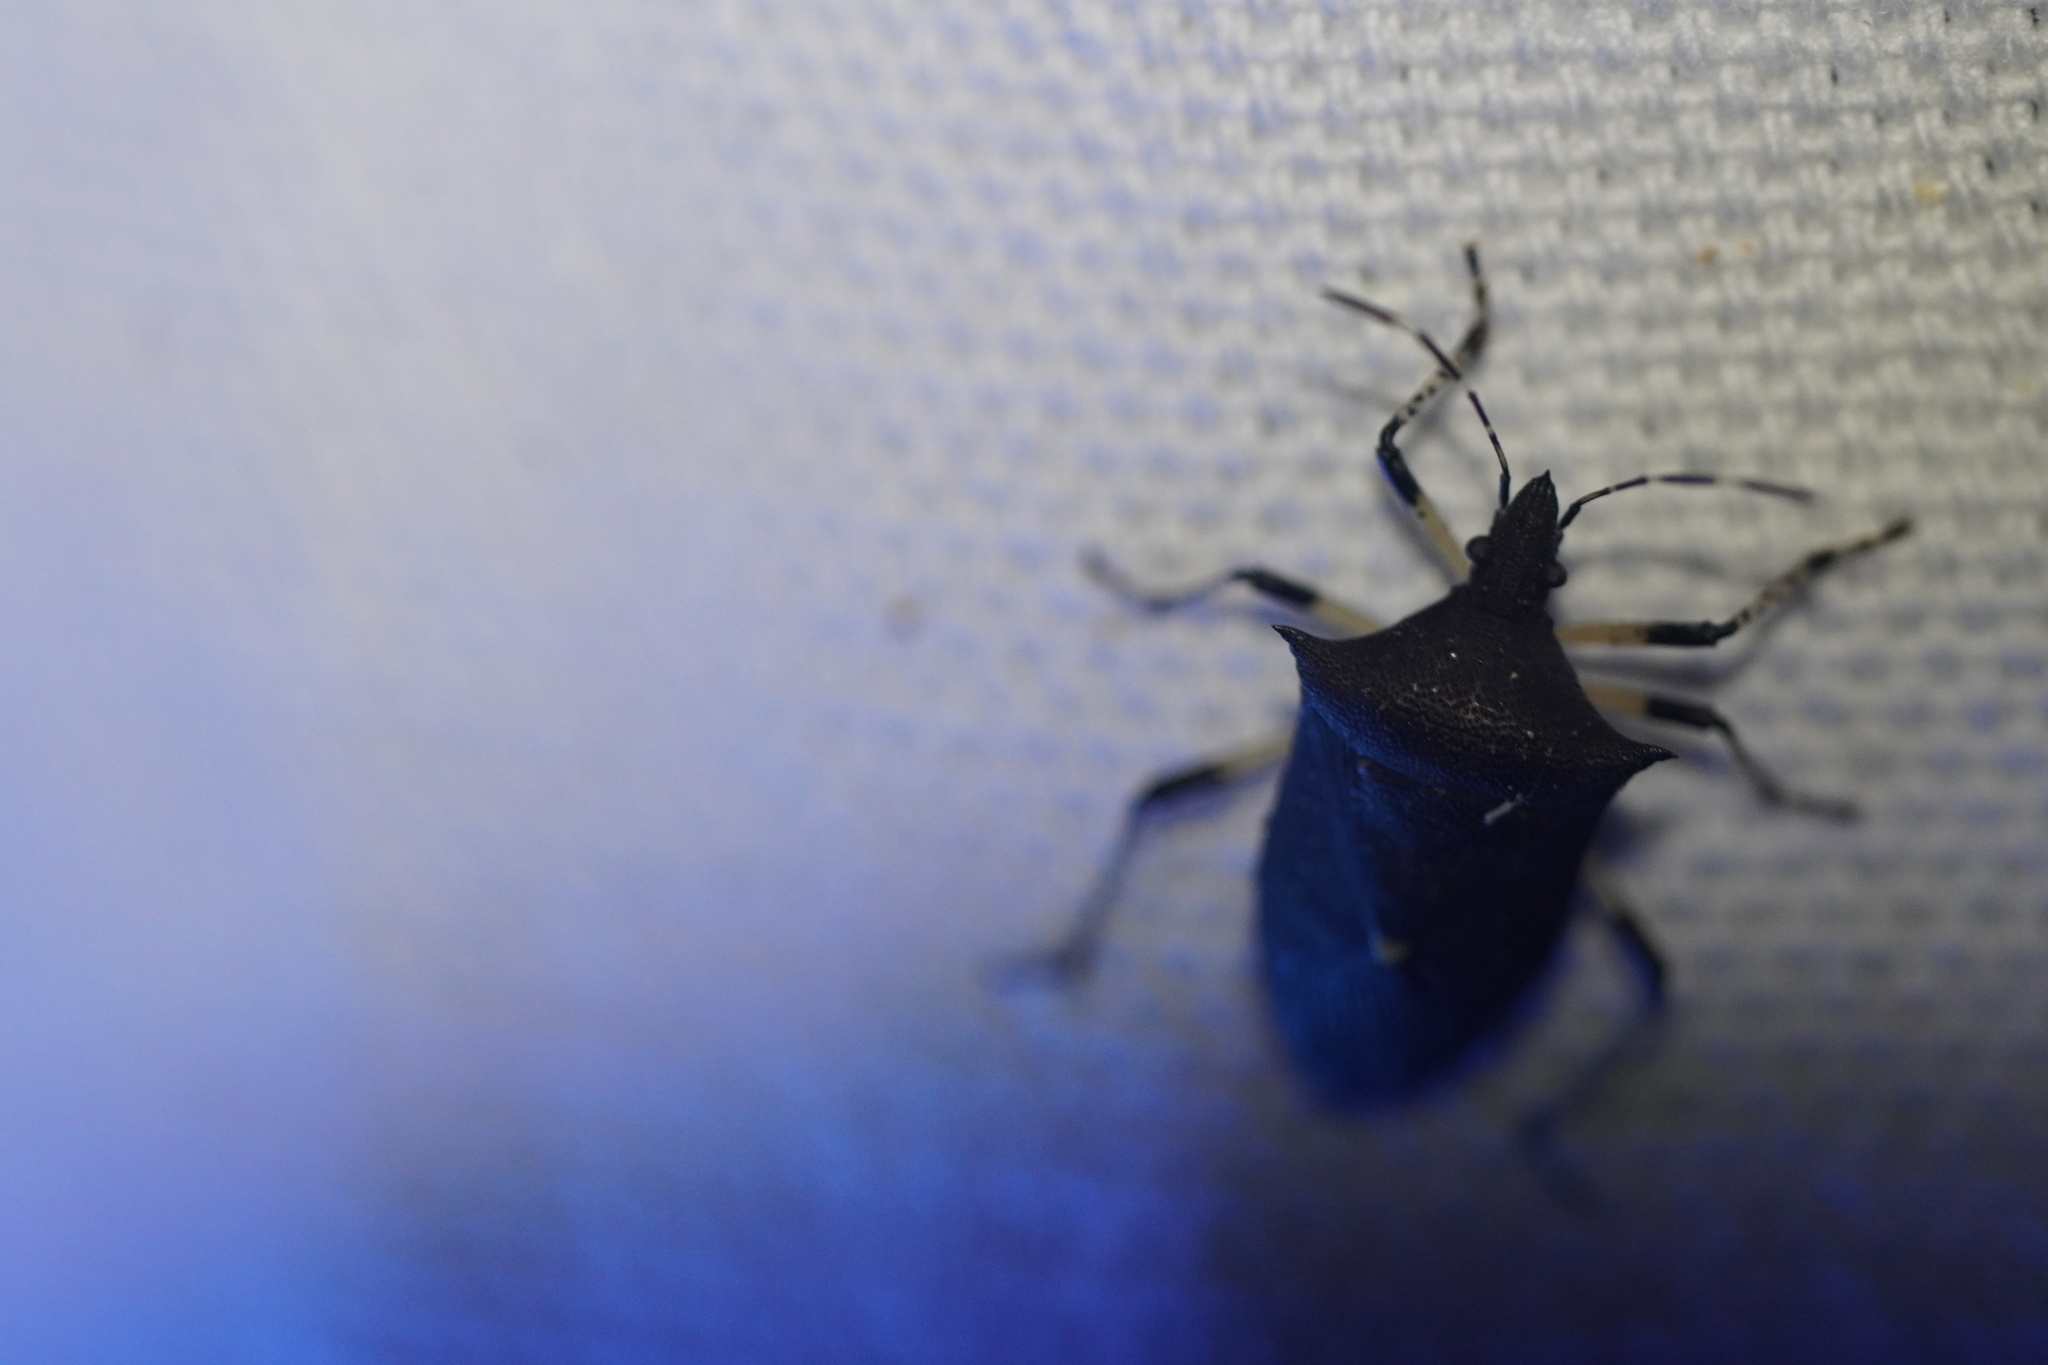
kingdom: Animalia
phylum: Arthropoda
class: Insecta
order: Hemiptera
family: Pentatomidae
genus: Proxys
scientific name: Proxys punctulatus
